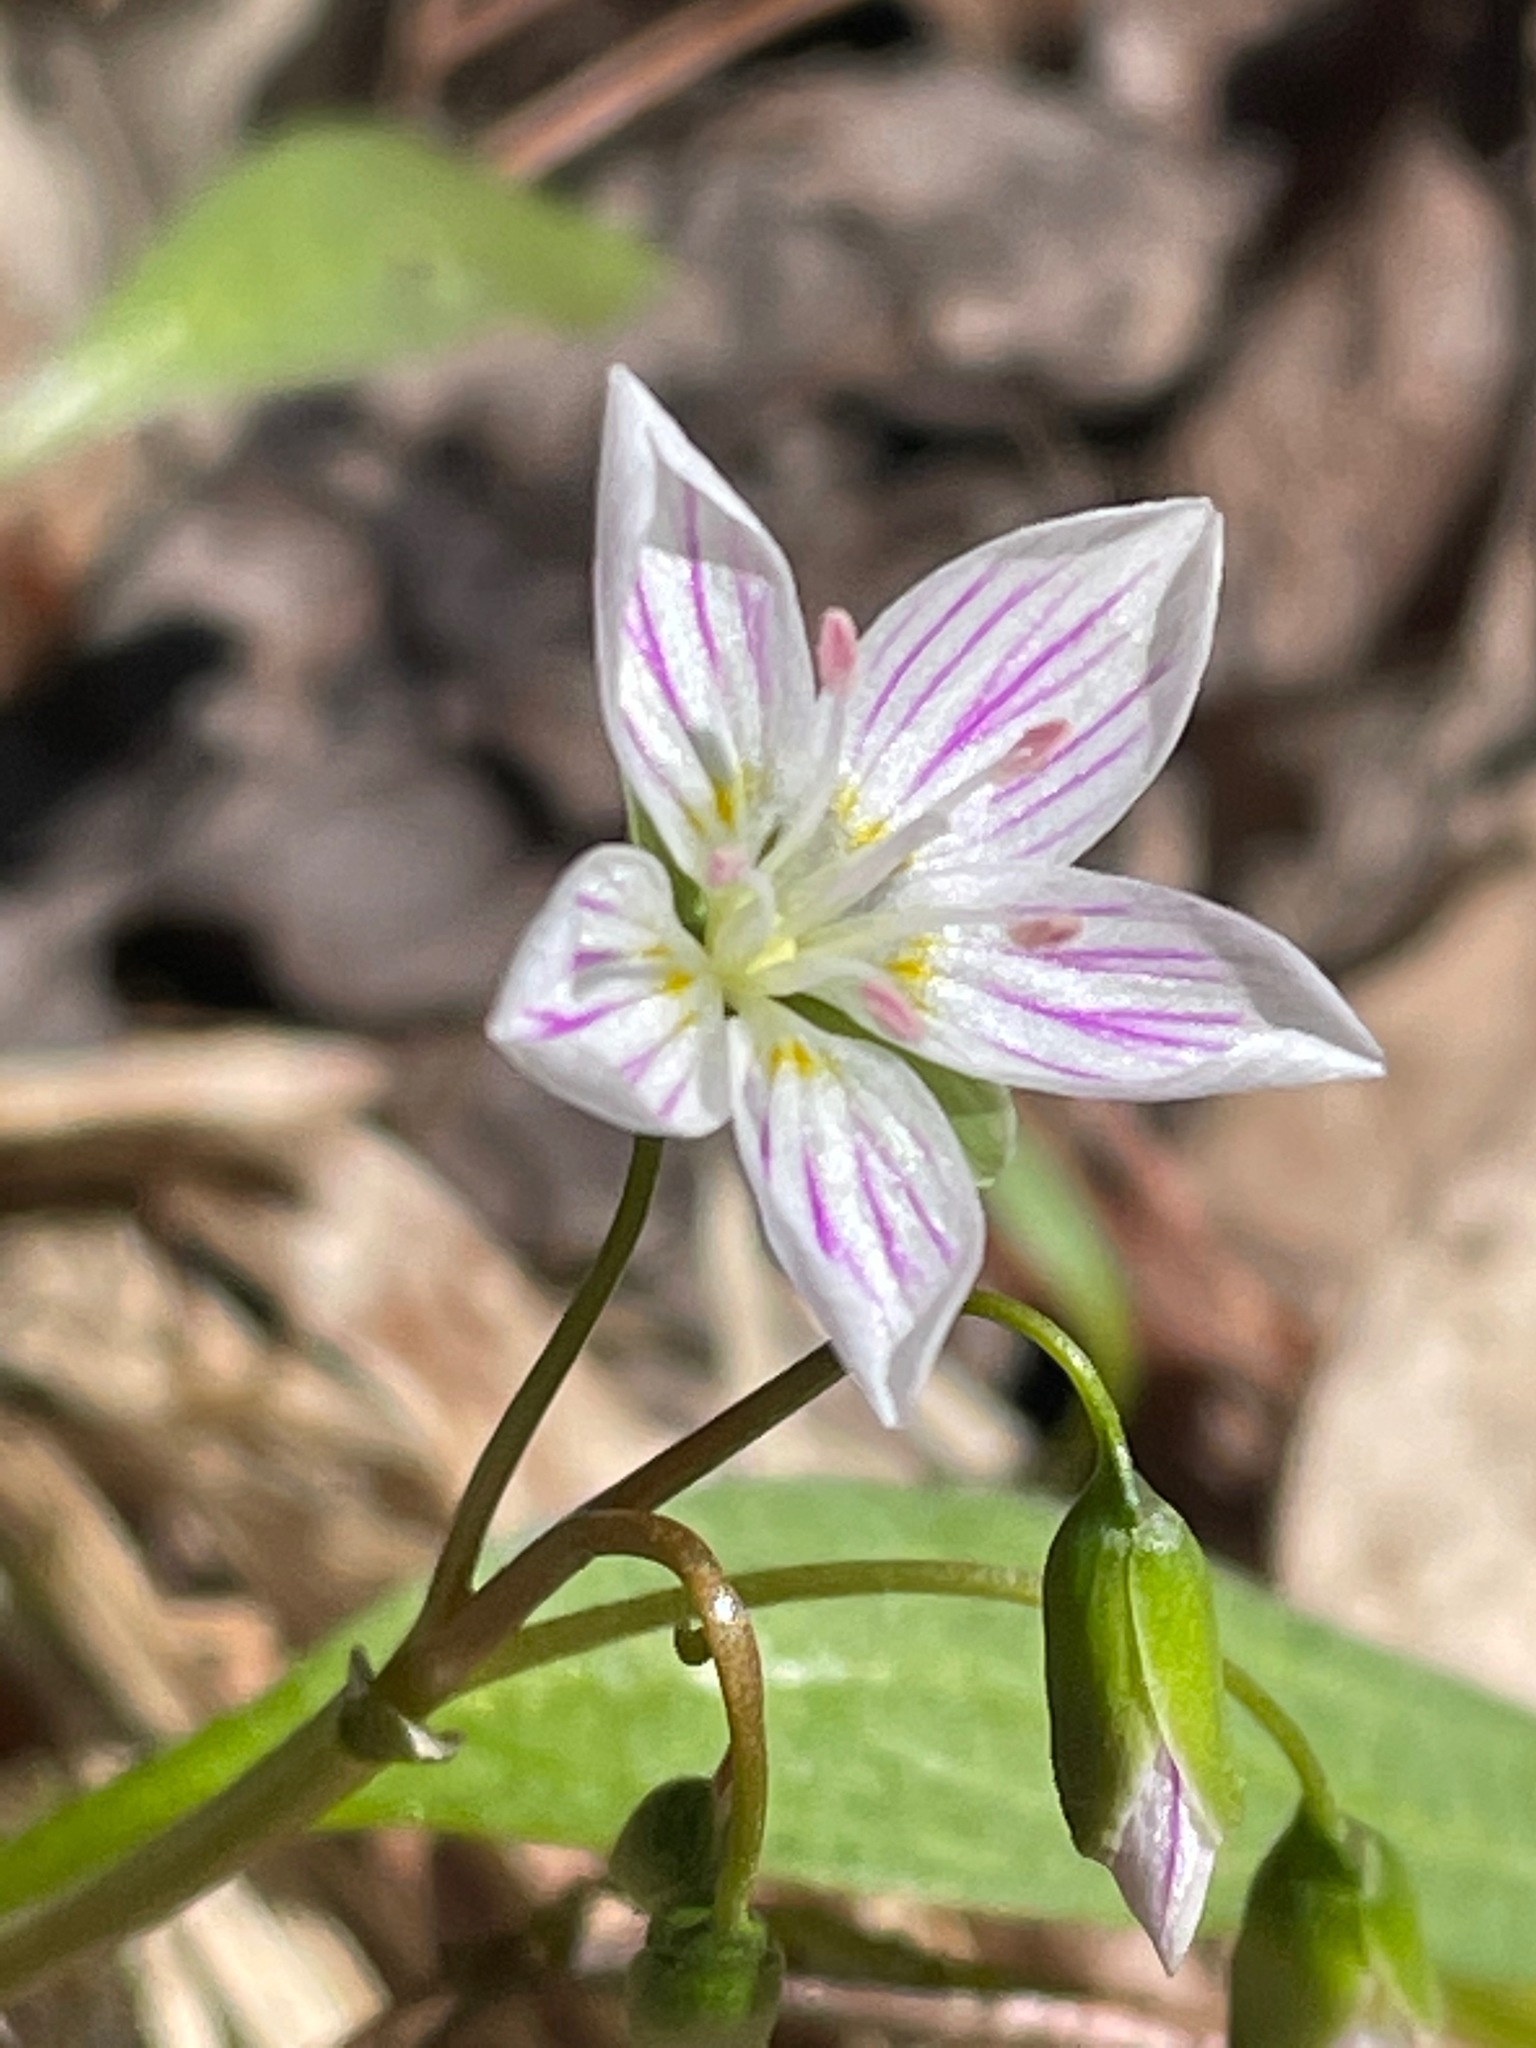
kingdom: Plantae
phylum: Tracheophyta
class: Magnoliopsida
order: Caryophyllales
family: Montiaceae
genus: Claytonia
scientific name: Claytonia caroliniana
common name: Carolina spring beauty
